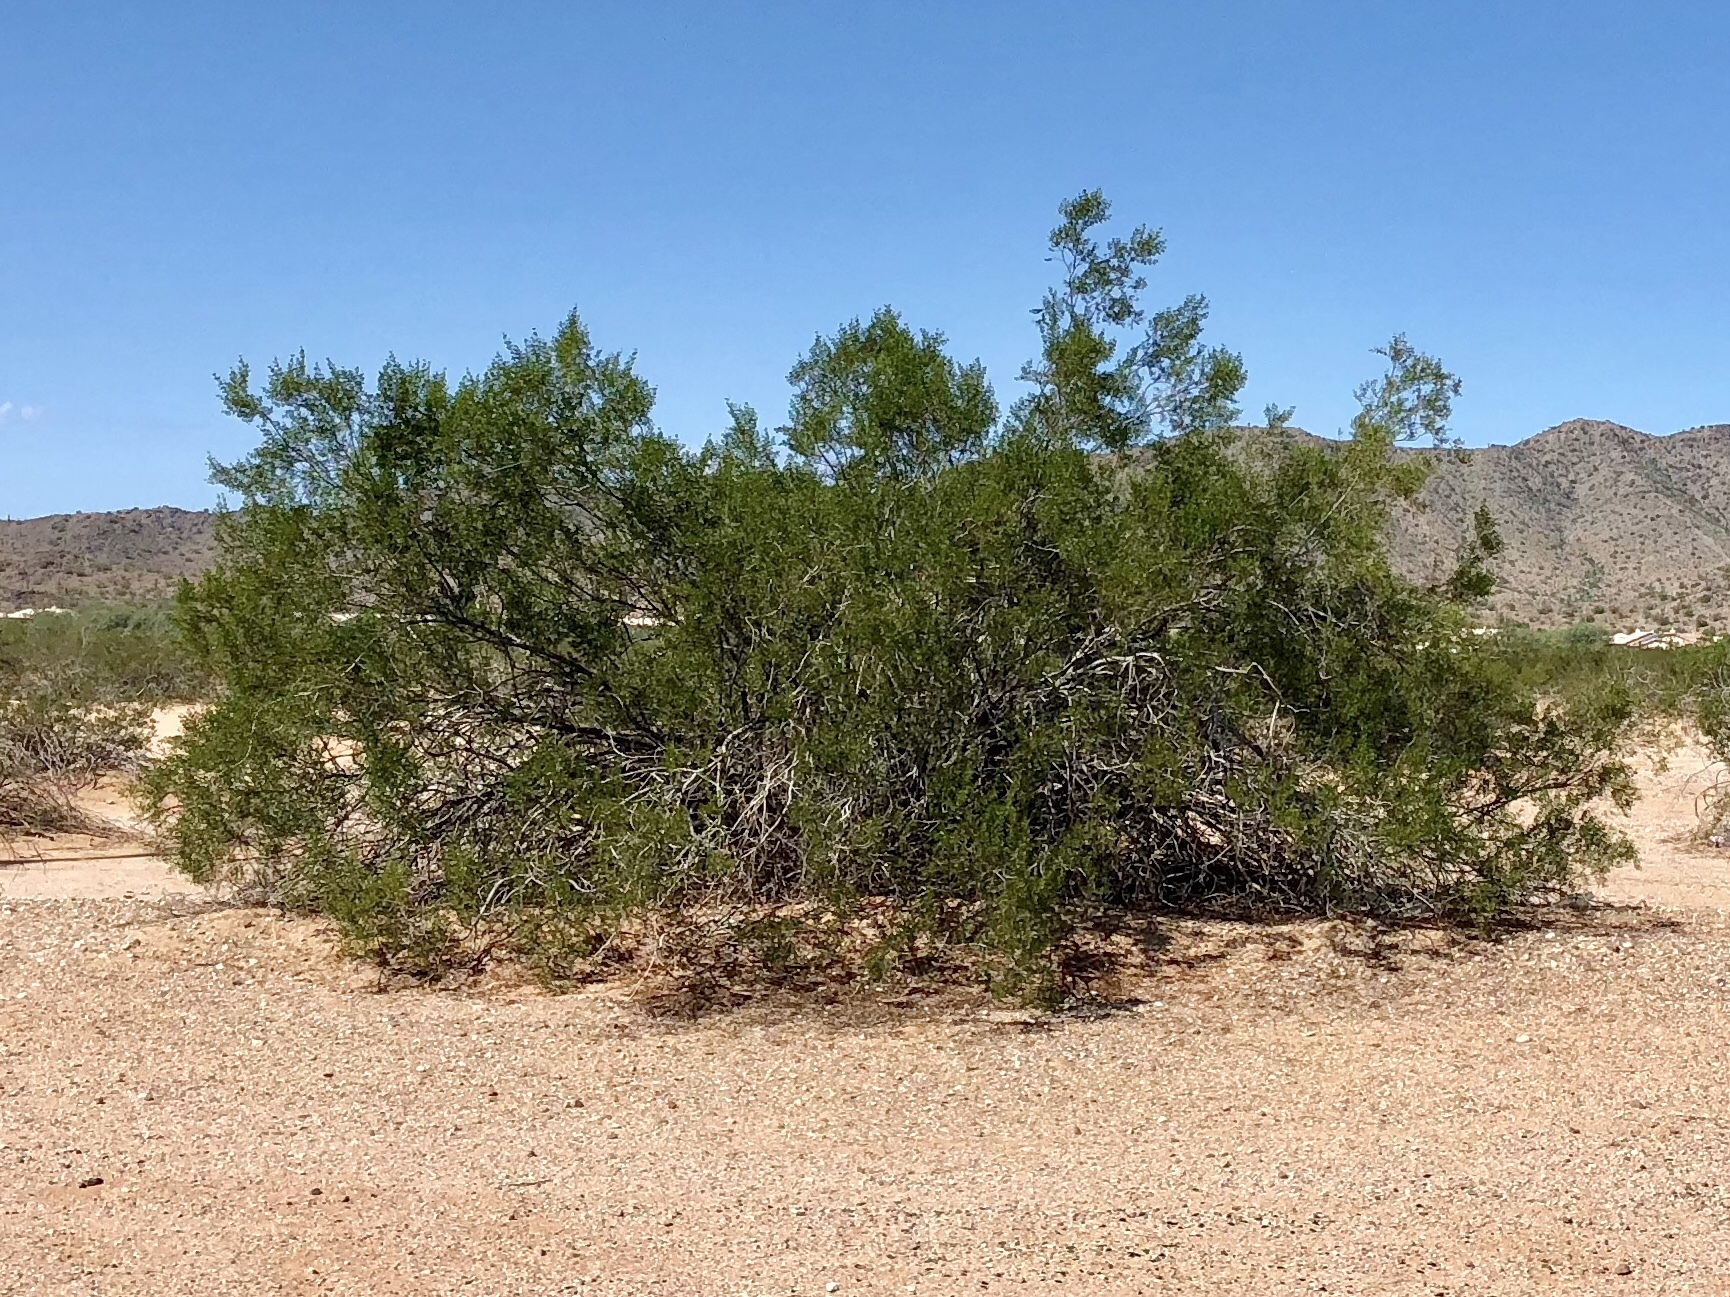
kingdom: Plantae
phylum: Tracheophyta
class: Magnoliopsida
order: Zygophyllales
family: Zygophyllaceae
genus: Larrea
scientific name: Larrea tridentata
